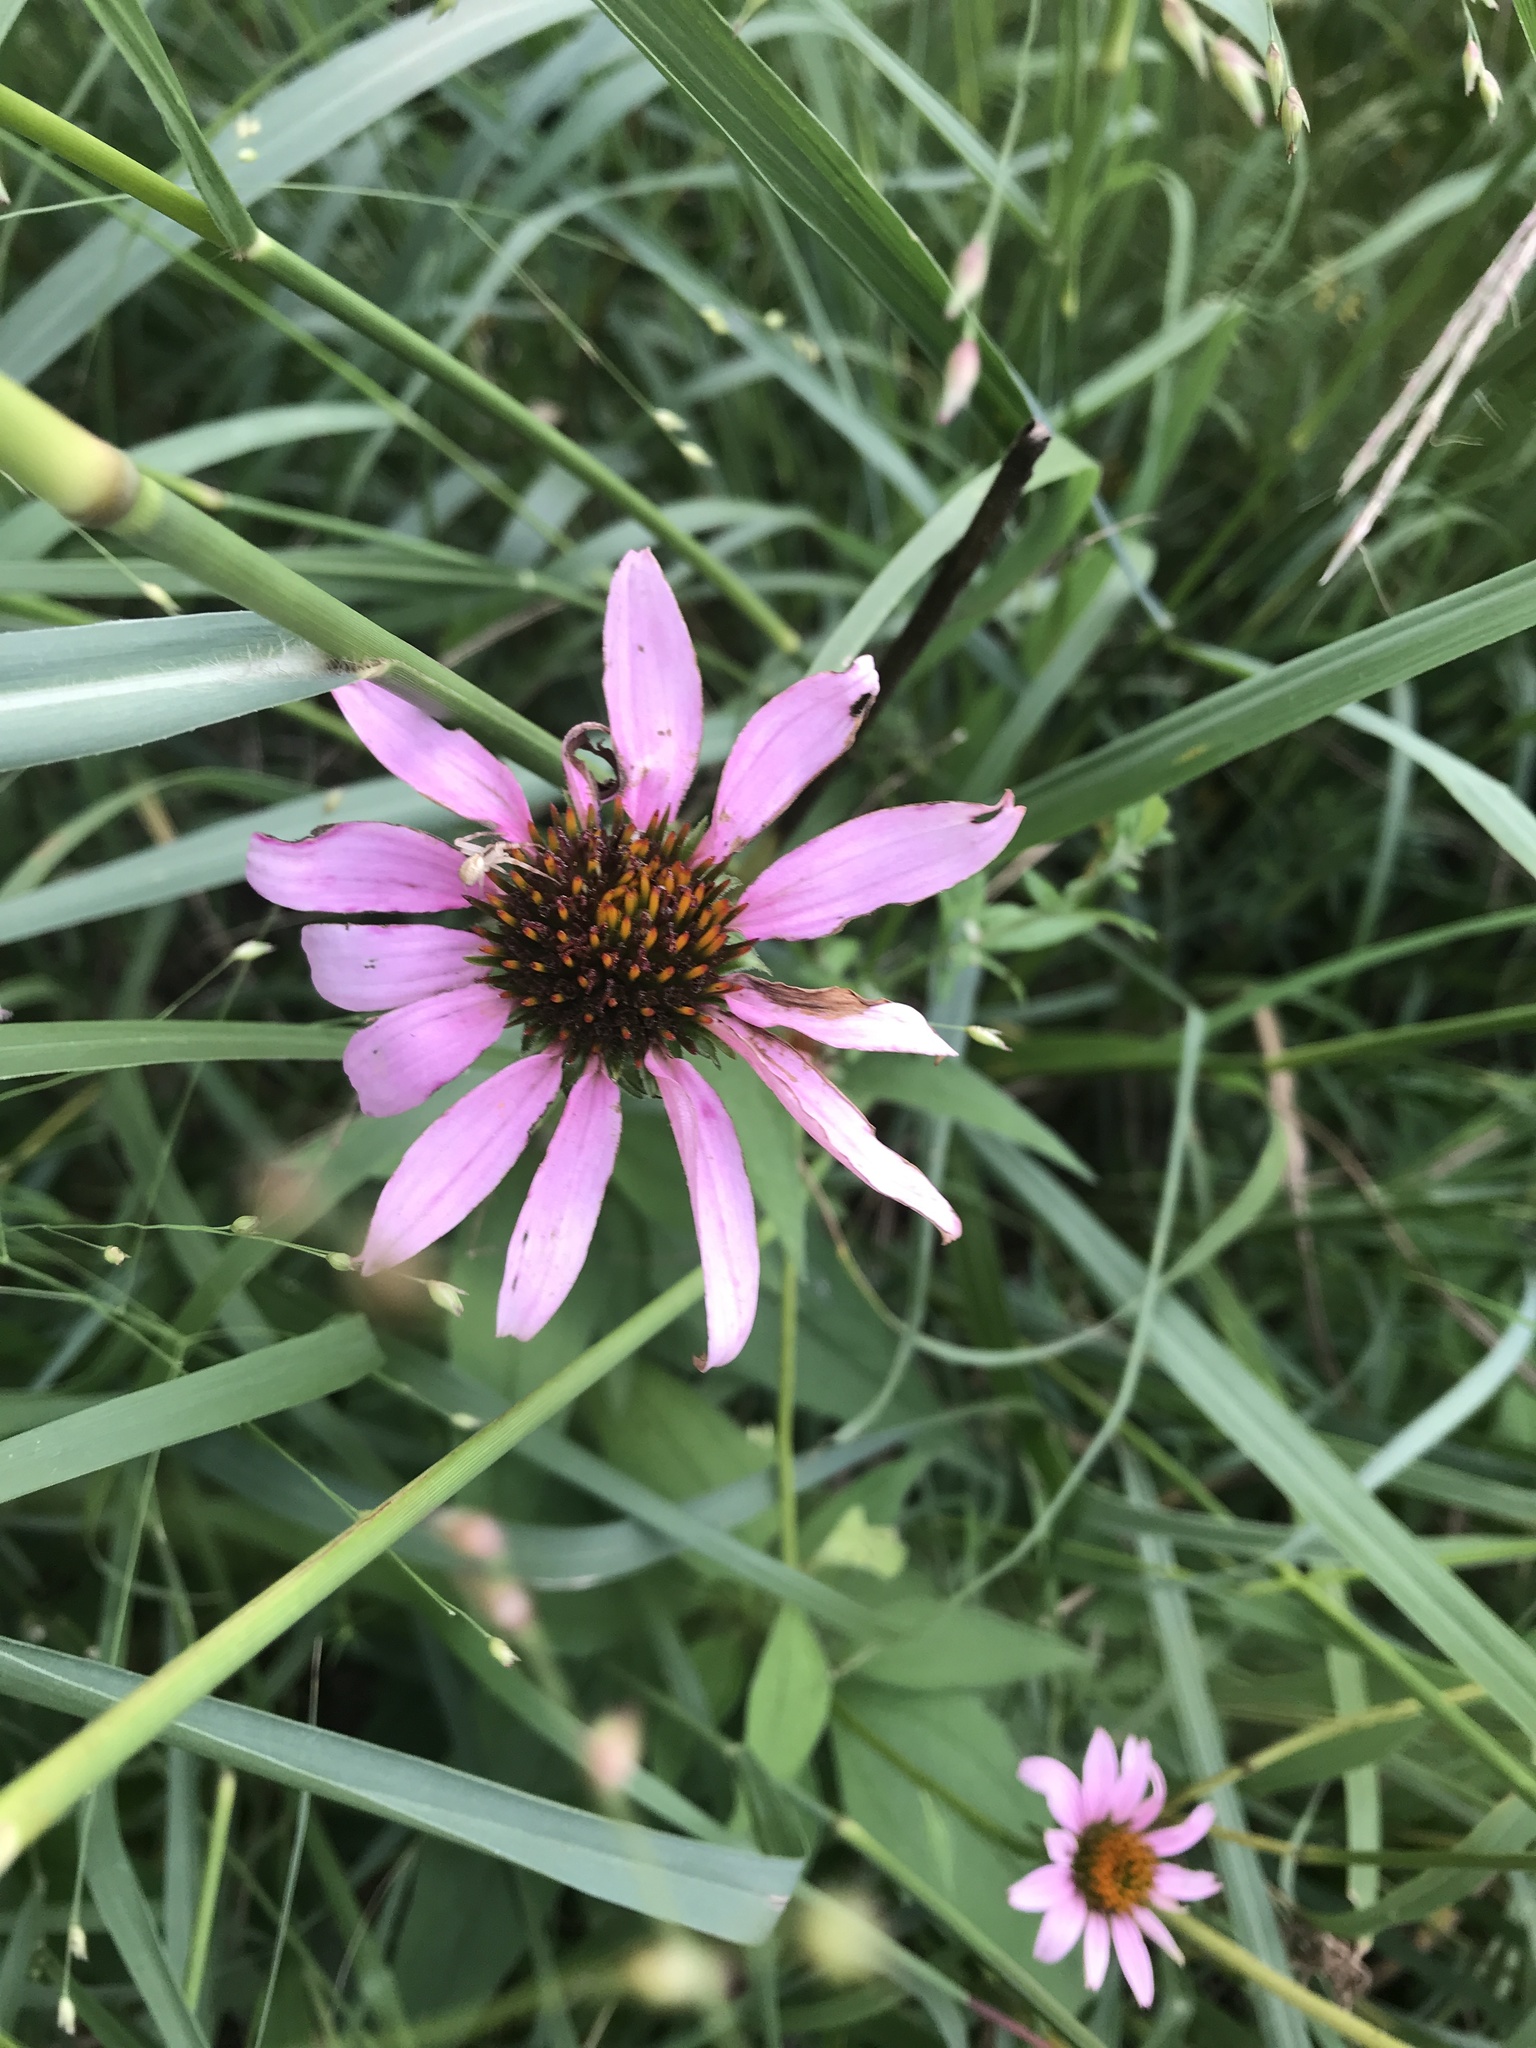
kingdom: Plantae
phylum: Tracheophyta
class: Magnoliopsida
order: Asterales
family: Asteraceae
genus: Echinacea
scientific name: Echinacea purpurea
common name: Broad-leaved purple coneflower
